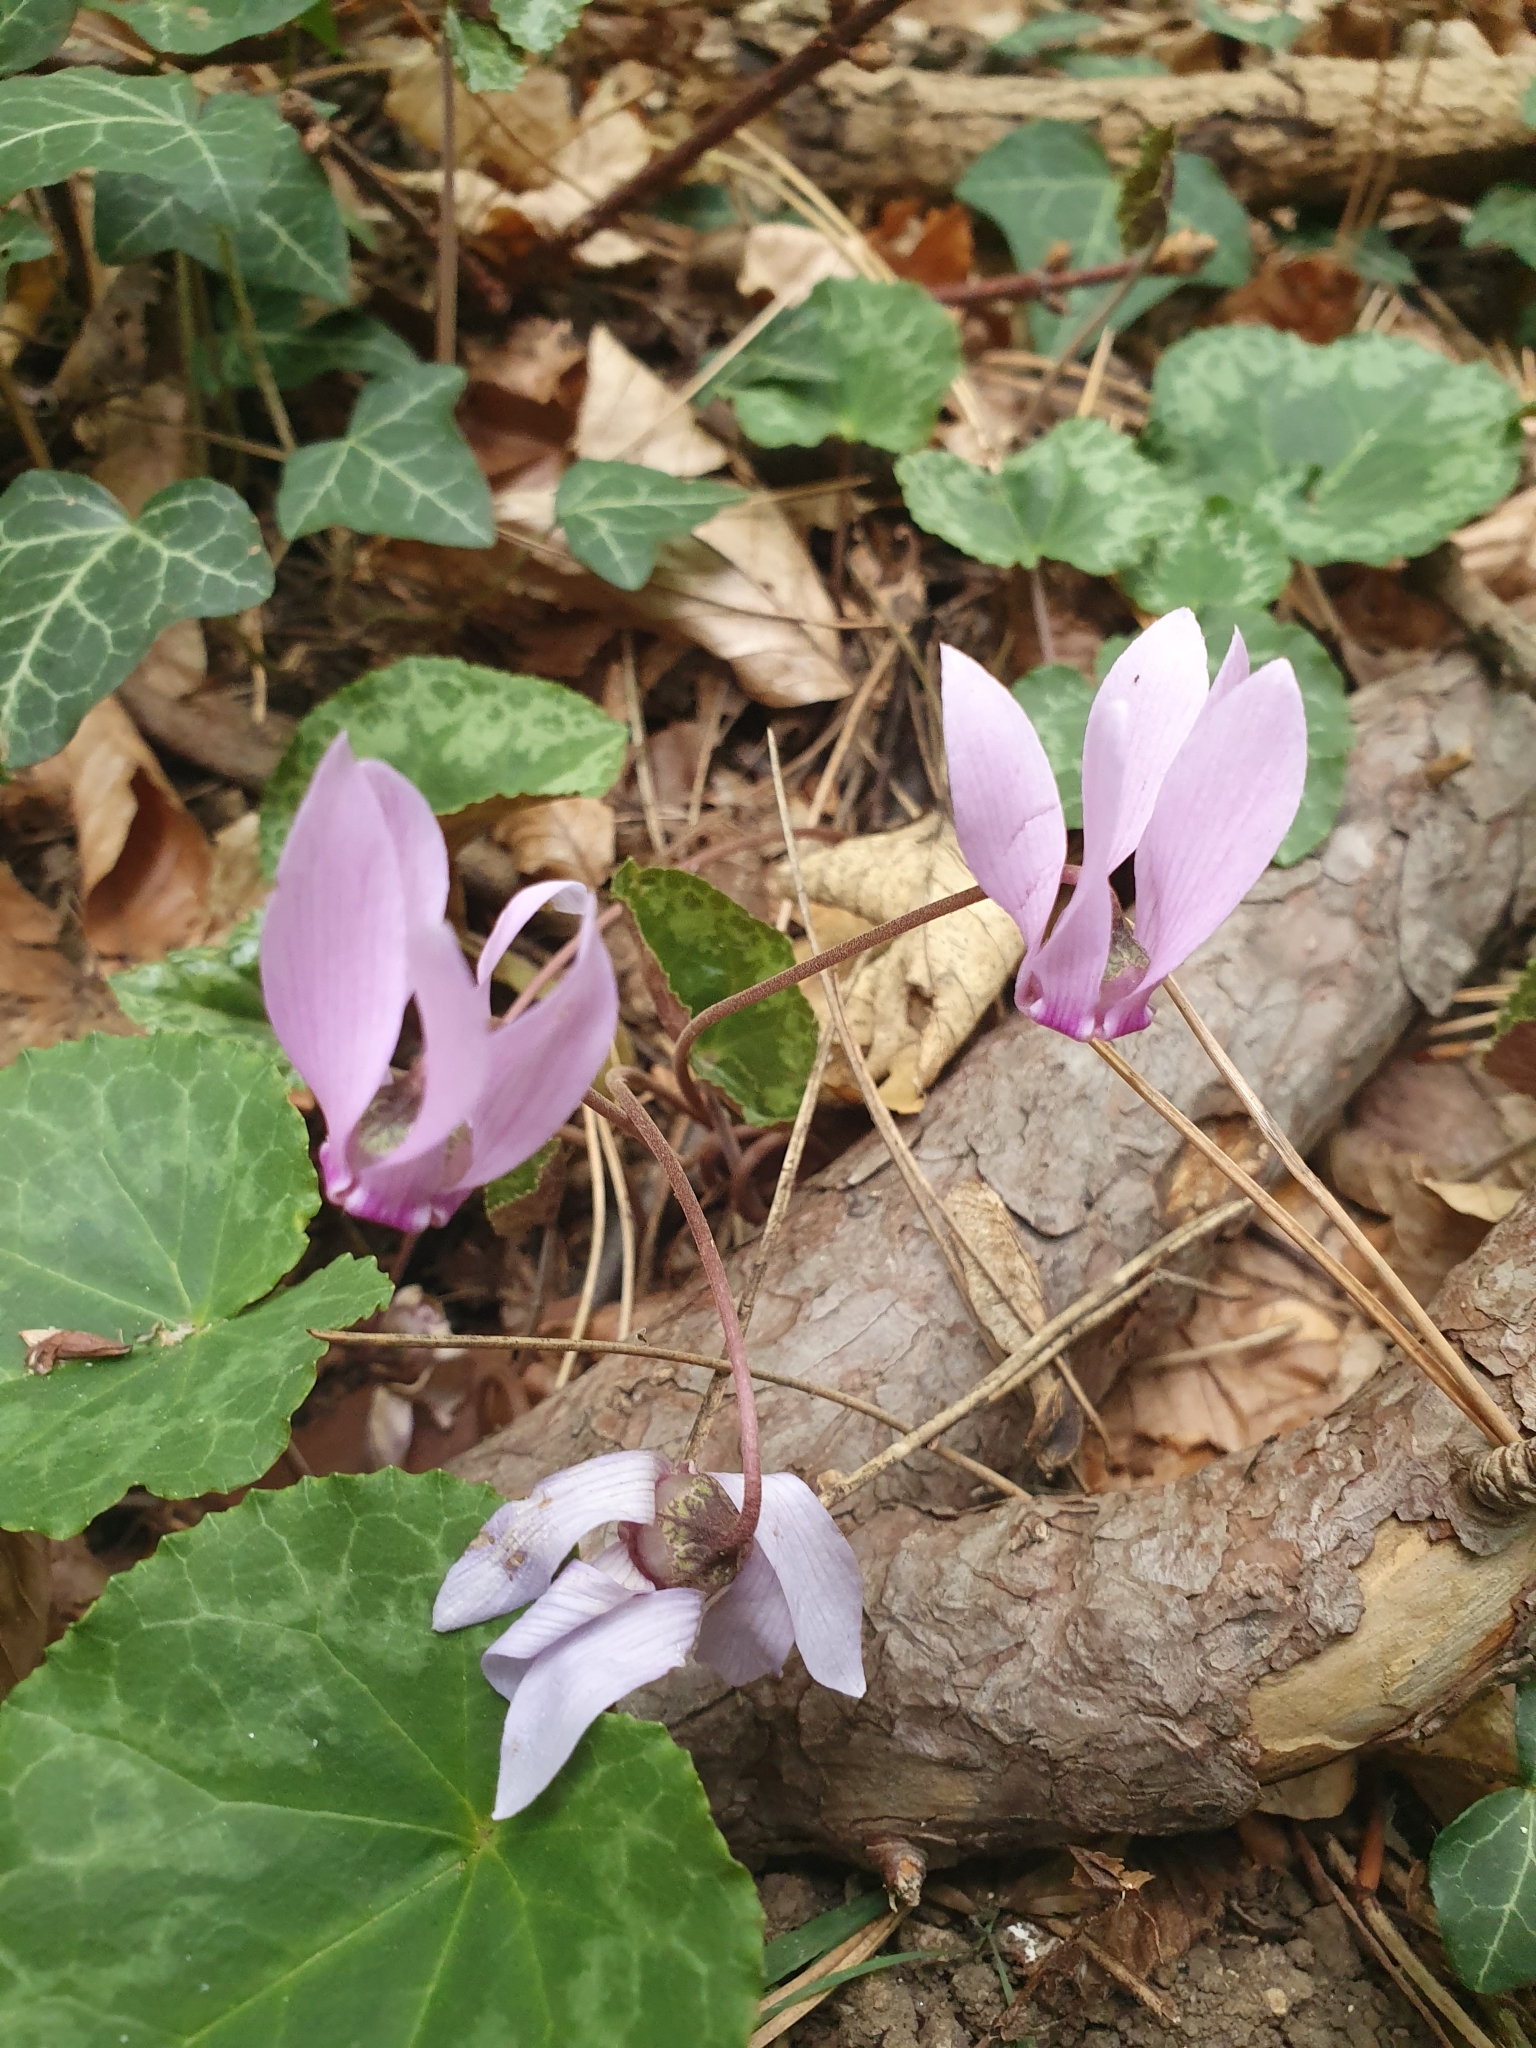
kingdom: Plantae
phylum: Tracheophyta
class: Magnoliopsida
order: Ericales
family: Primulaceae
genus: Cyclamen
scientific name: Cyclamen purpurascens
